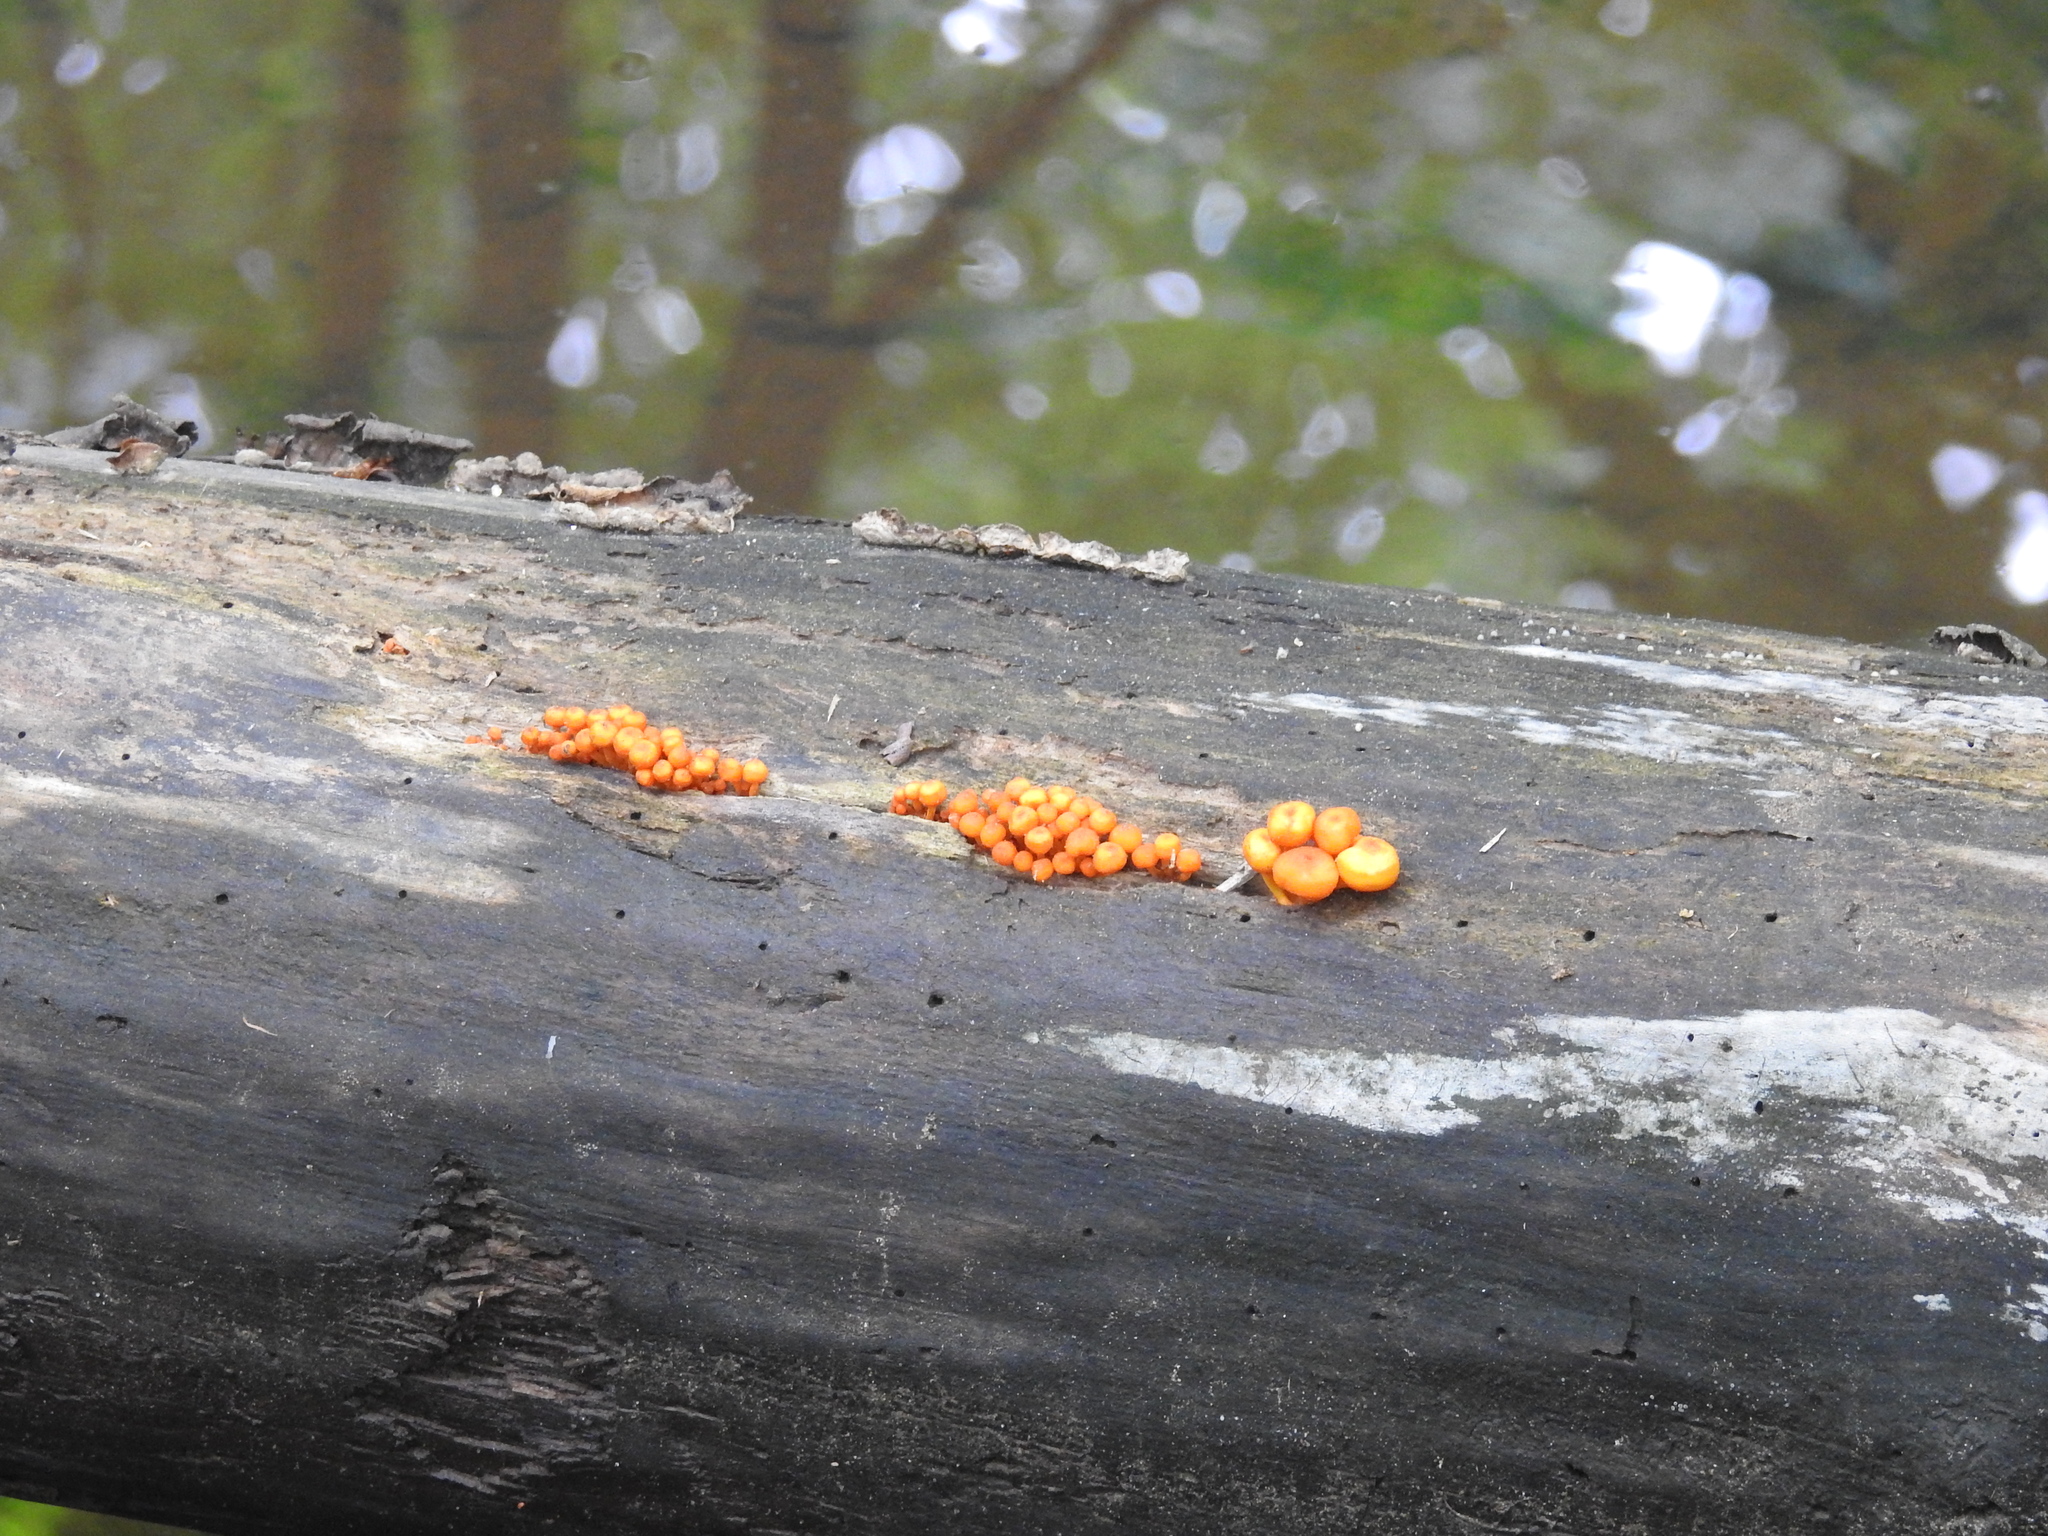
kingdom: Fungi
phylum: Basidiomycota
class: Agaricomycetes
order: Agaricales
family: Mycenaceae
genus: Mycena
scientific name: Mycena leaiana
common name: Orange mycena
